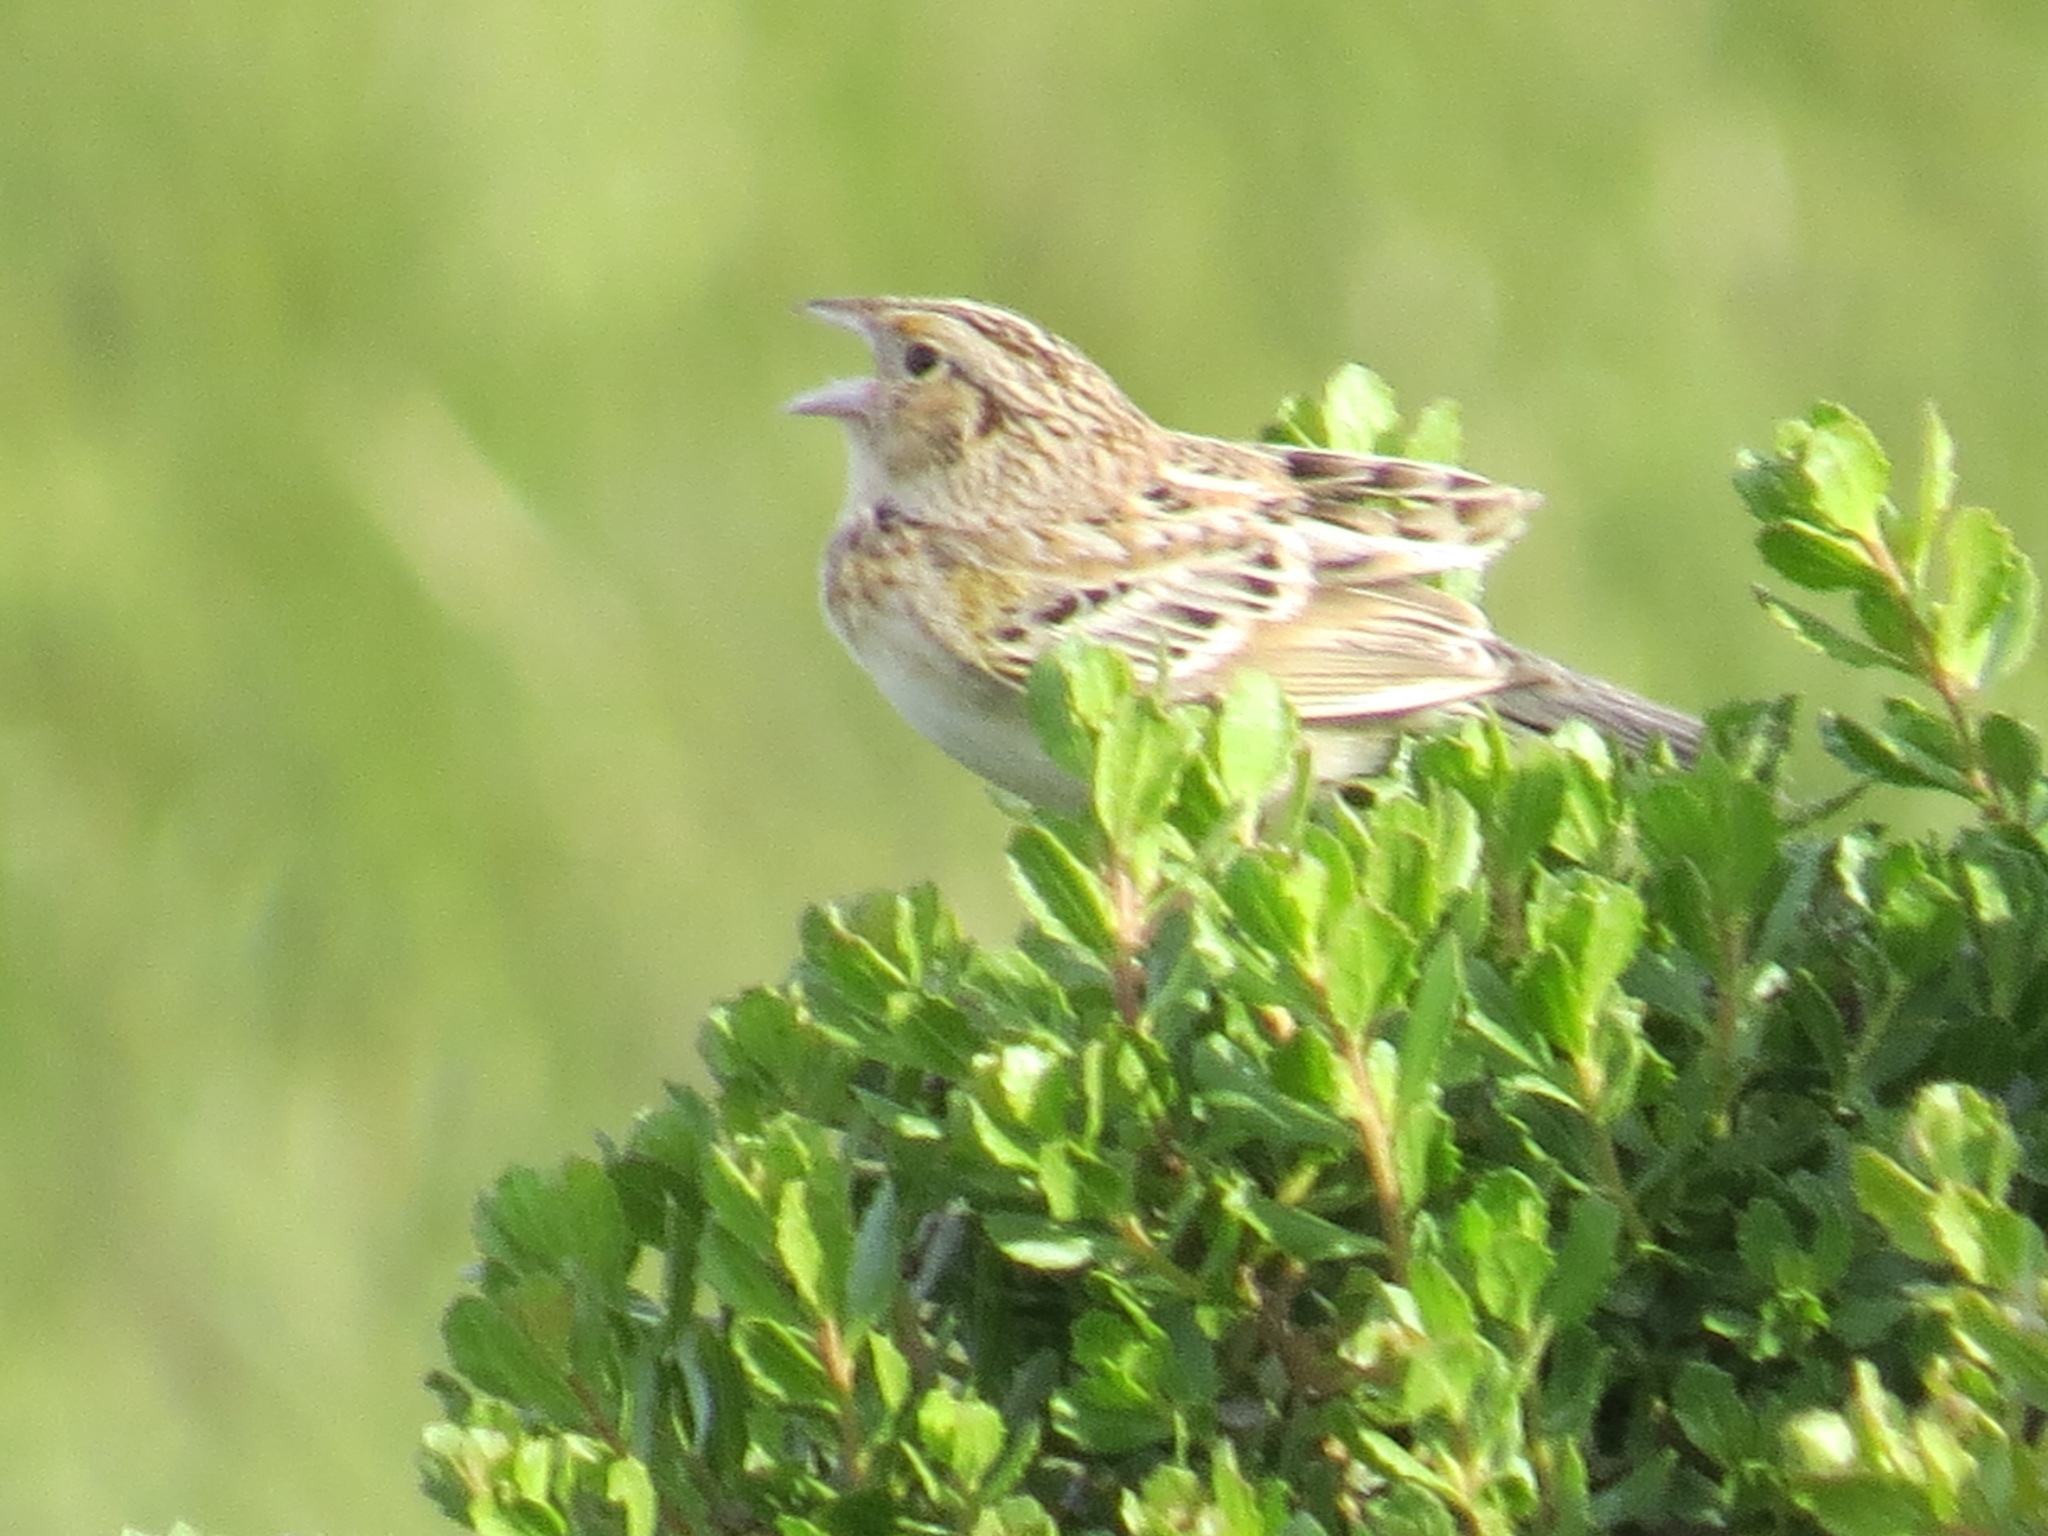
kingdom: Animalia
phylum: Chordata
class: Aves
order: Passeriformes
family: Passerellidae
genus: Ammodramus
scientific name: Ammodramus savannarum
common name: Grasshopper sparrow
